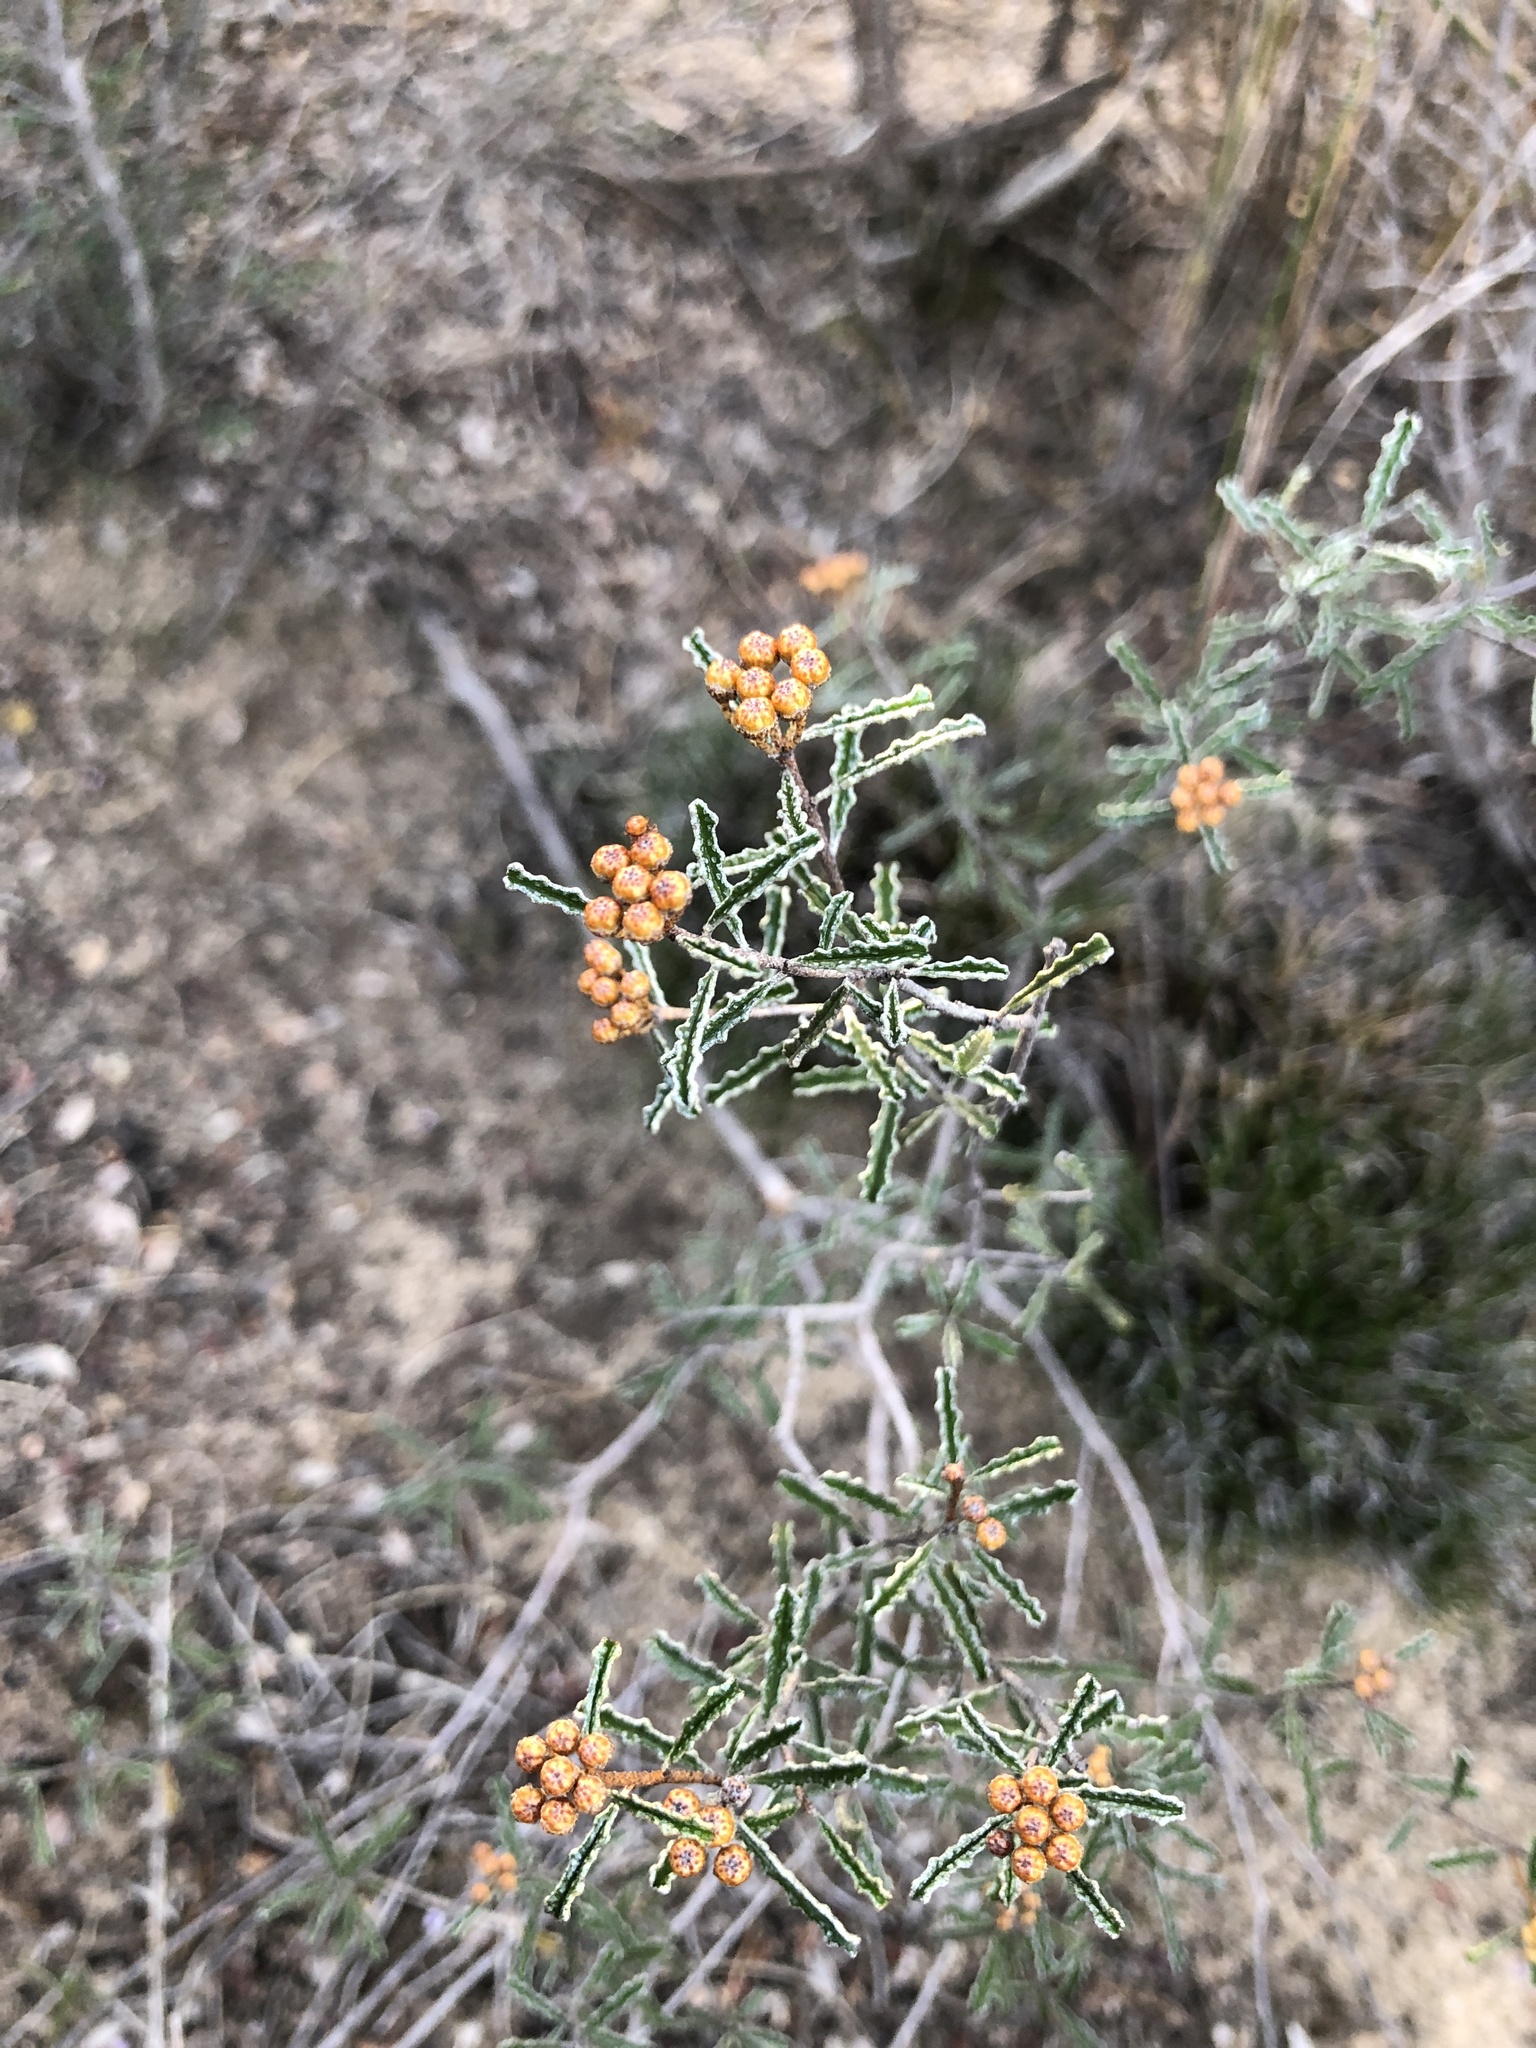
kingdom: Plantae
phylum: Tracheophyta
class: Magnoliopsida
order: Sapindales
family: Rutaceae
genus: Phebalium
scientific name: Phebalium bullatum
